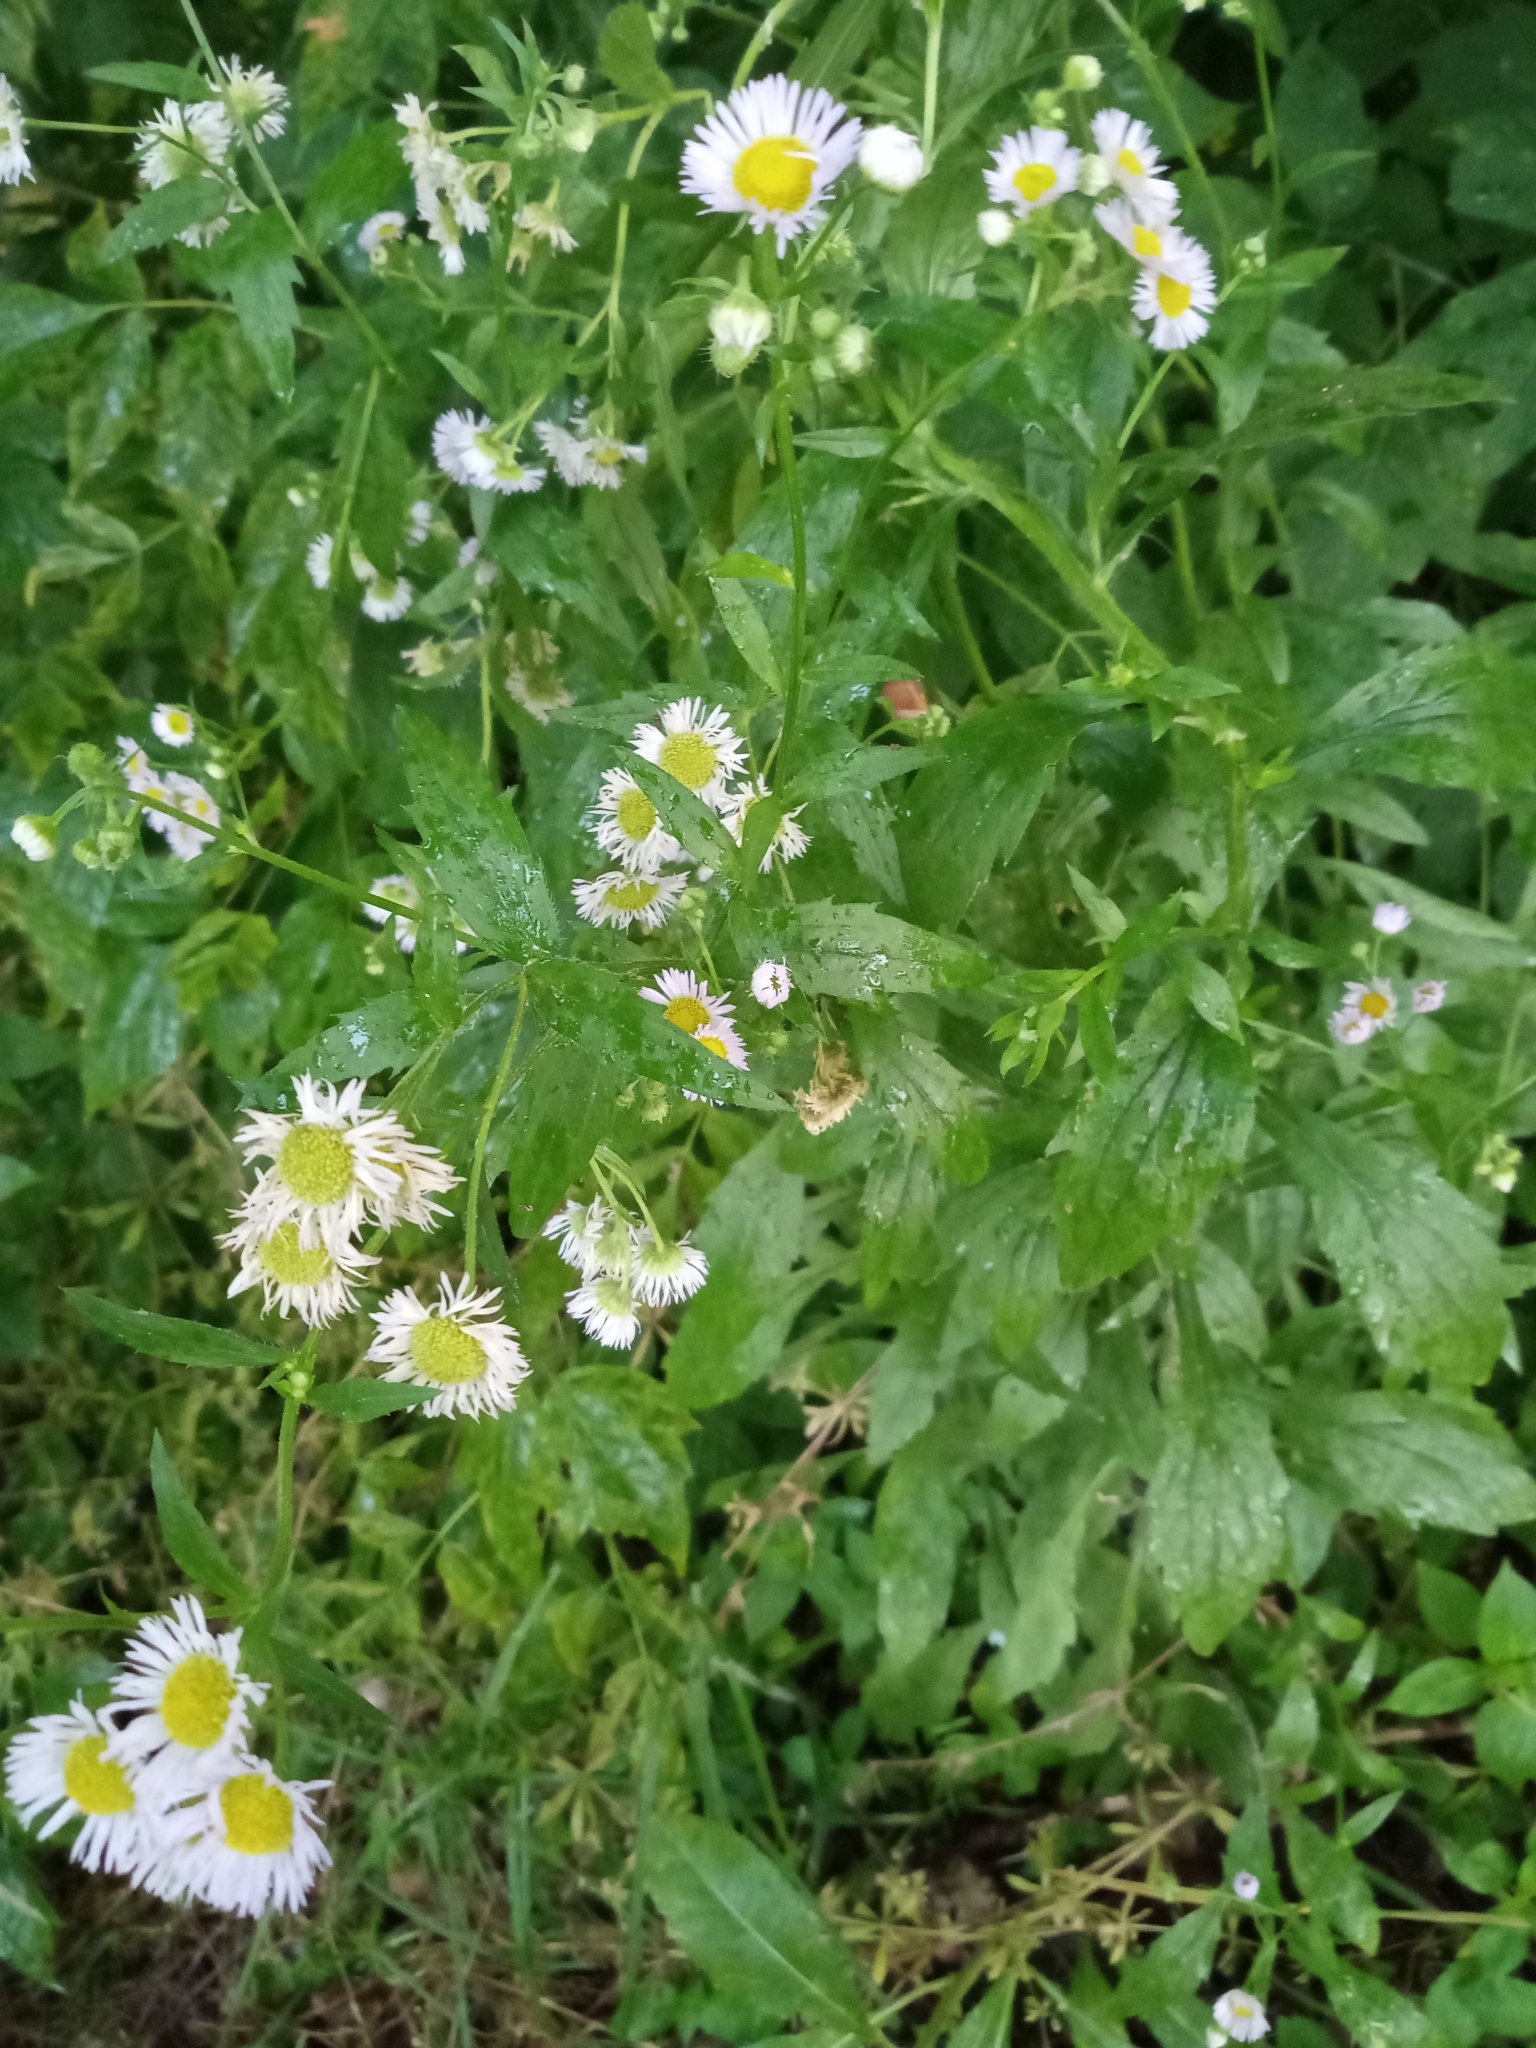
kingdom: Plantae
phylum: Tracheophyta
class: Magnoliopsida
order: Asterales
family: Asteraceae
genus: Erigeron
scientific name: Erigeron annuus
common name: Tall fleabane
